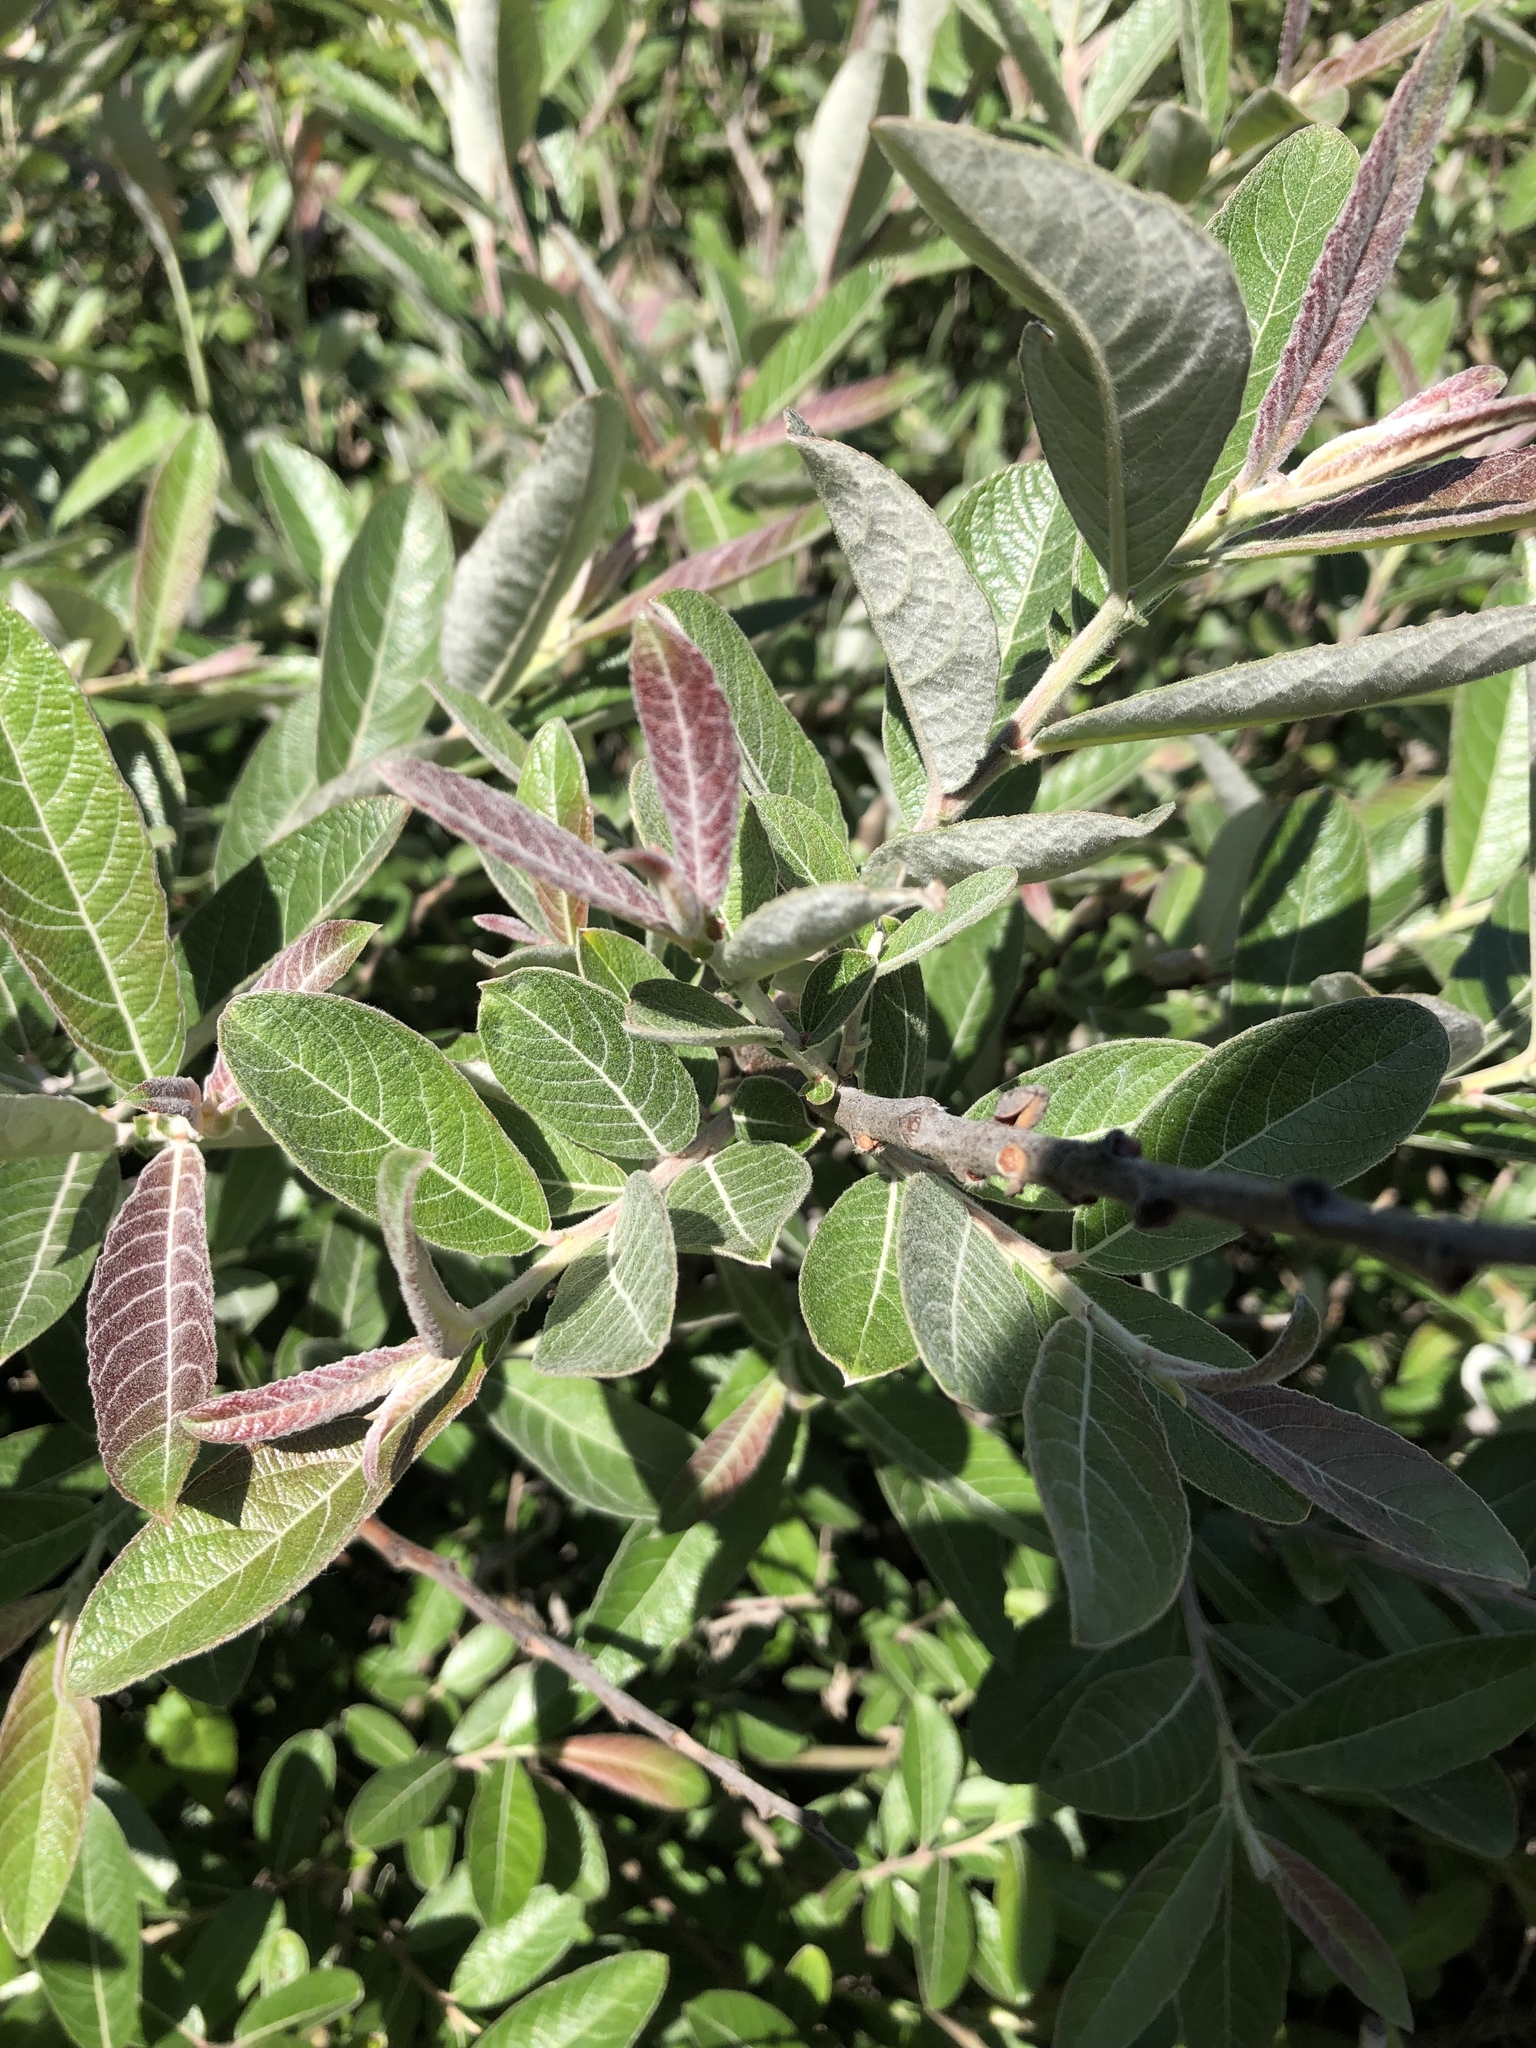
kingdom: Plantae
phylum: Tracheophyta
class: Magnoliopsida
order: Malpighiales
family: Salicaceae
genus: Salix
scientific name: Salix breweri
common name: Brewer’s willow
